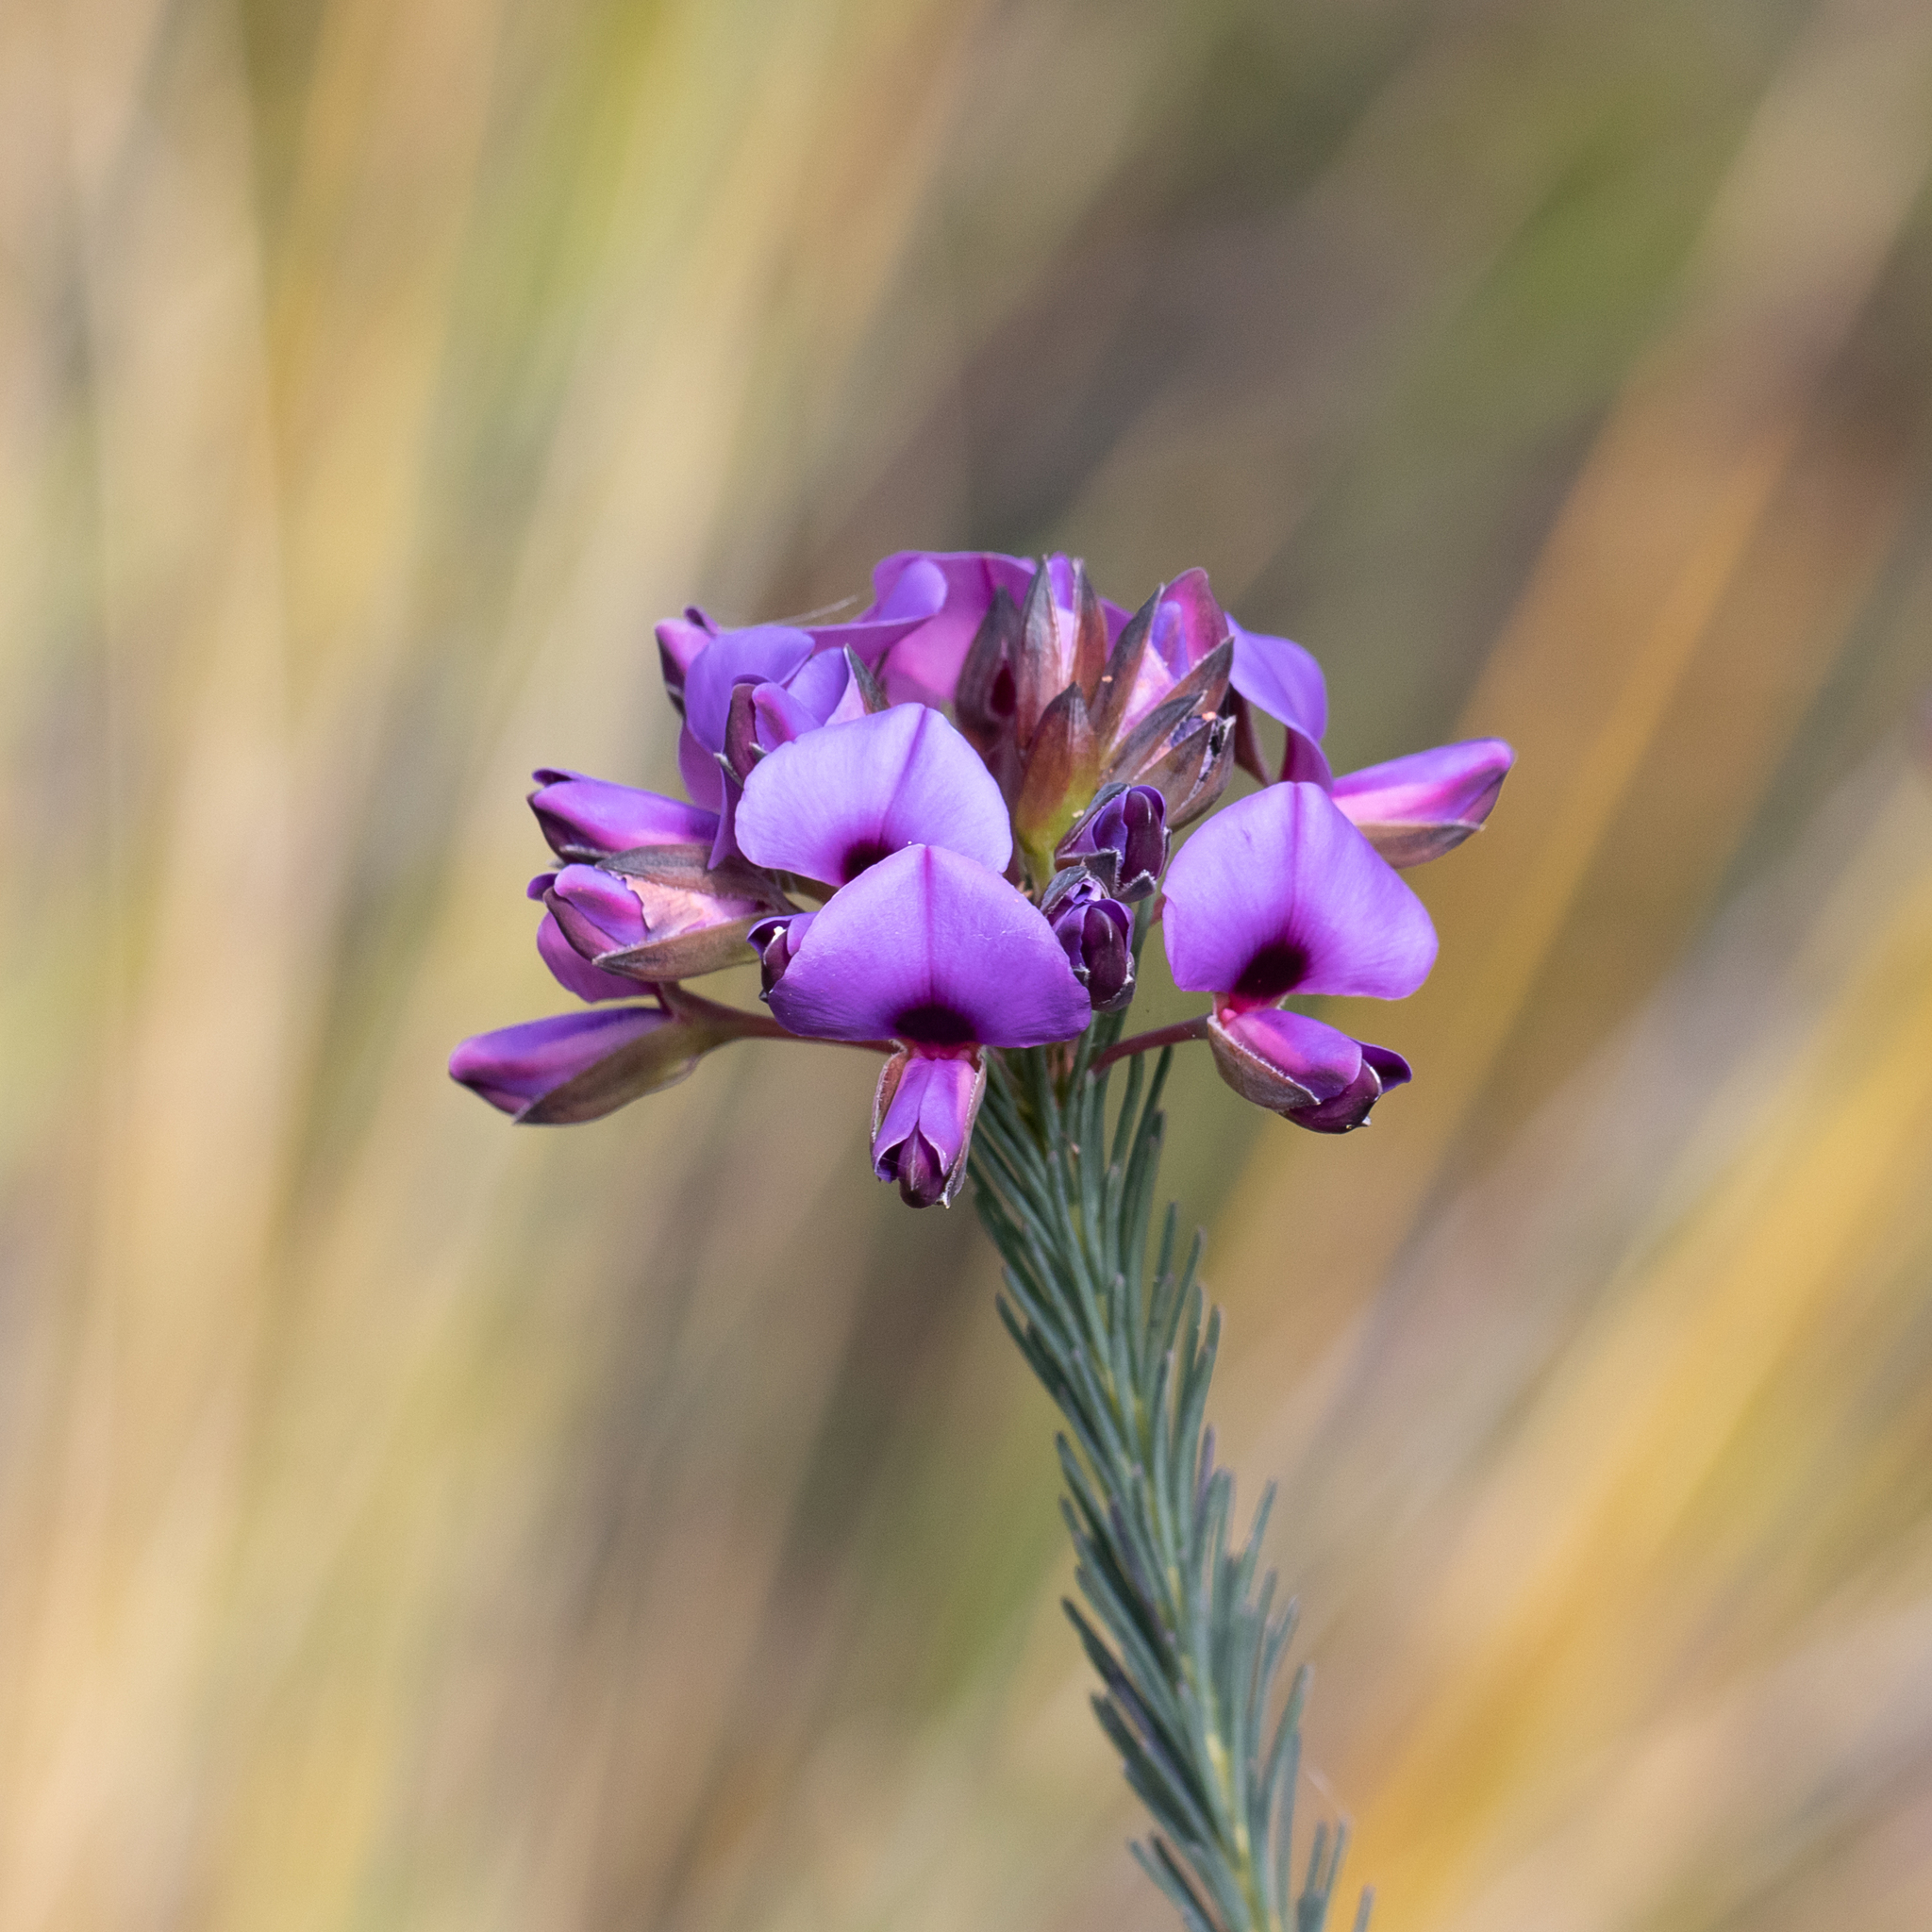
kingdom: Plantae
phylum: Tracheophyta
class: Magnoliopsida
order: Fabales
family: Fabaceae
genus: Gompholobium
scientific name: Gompholobium confertum
